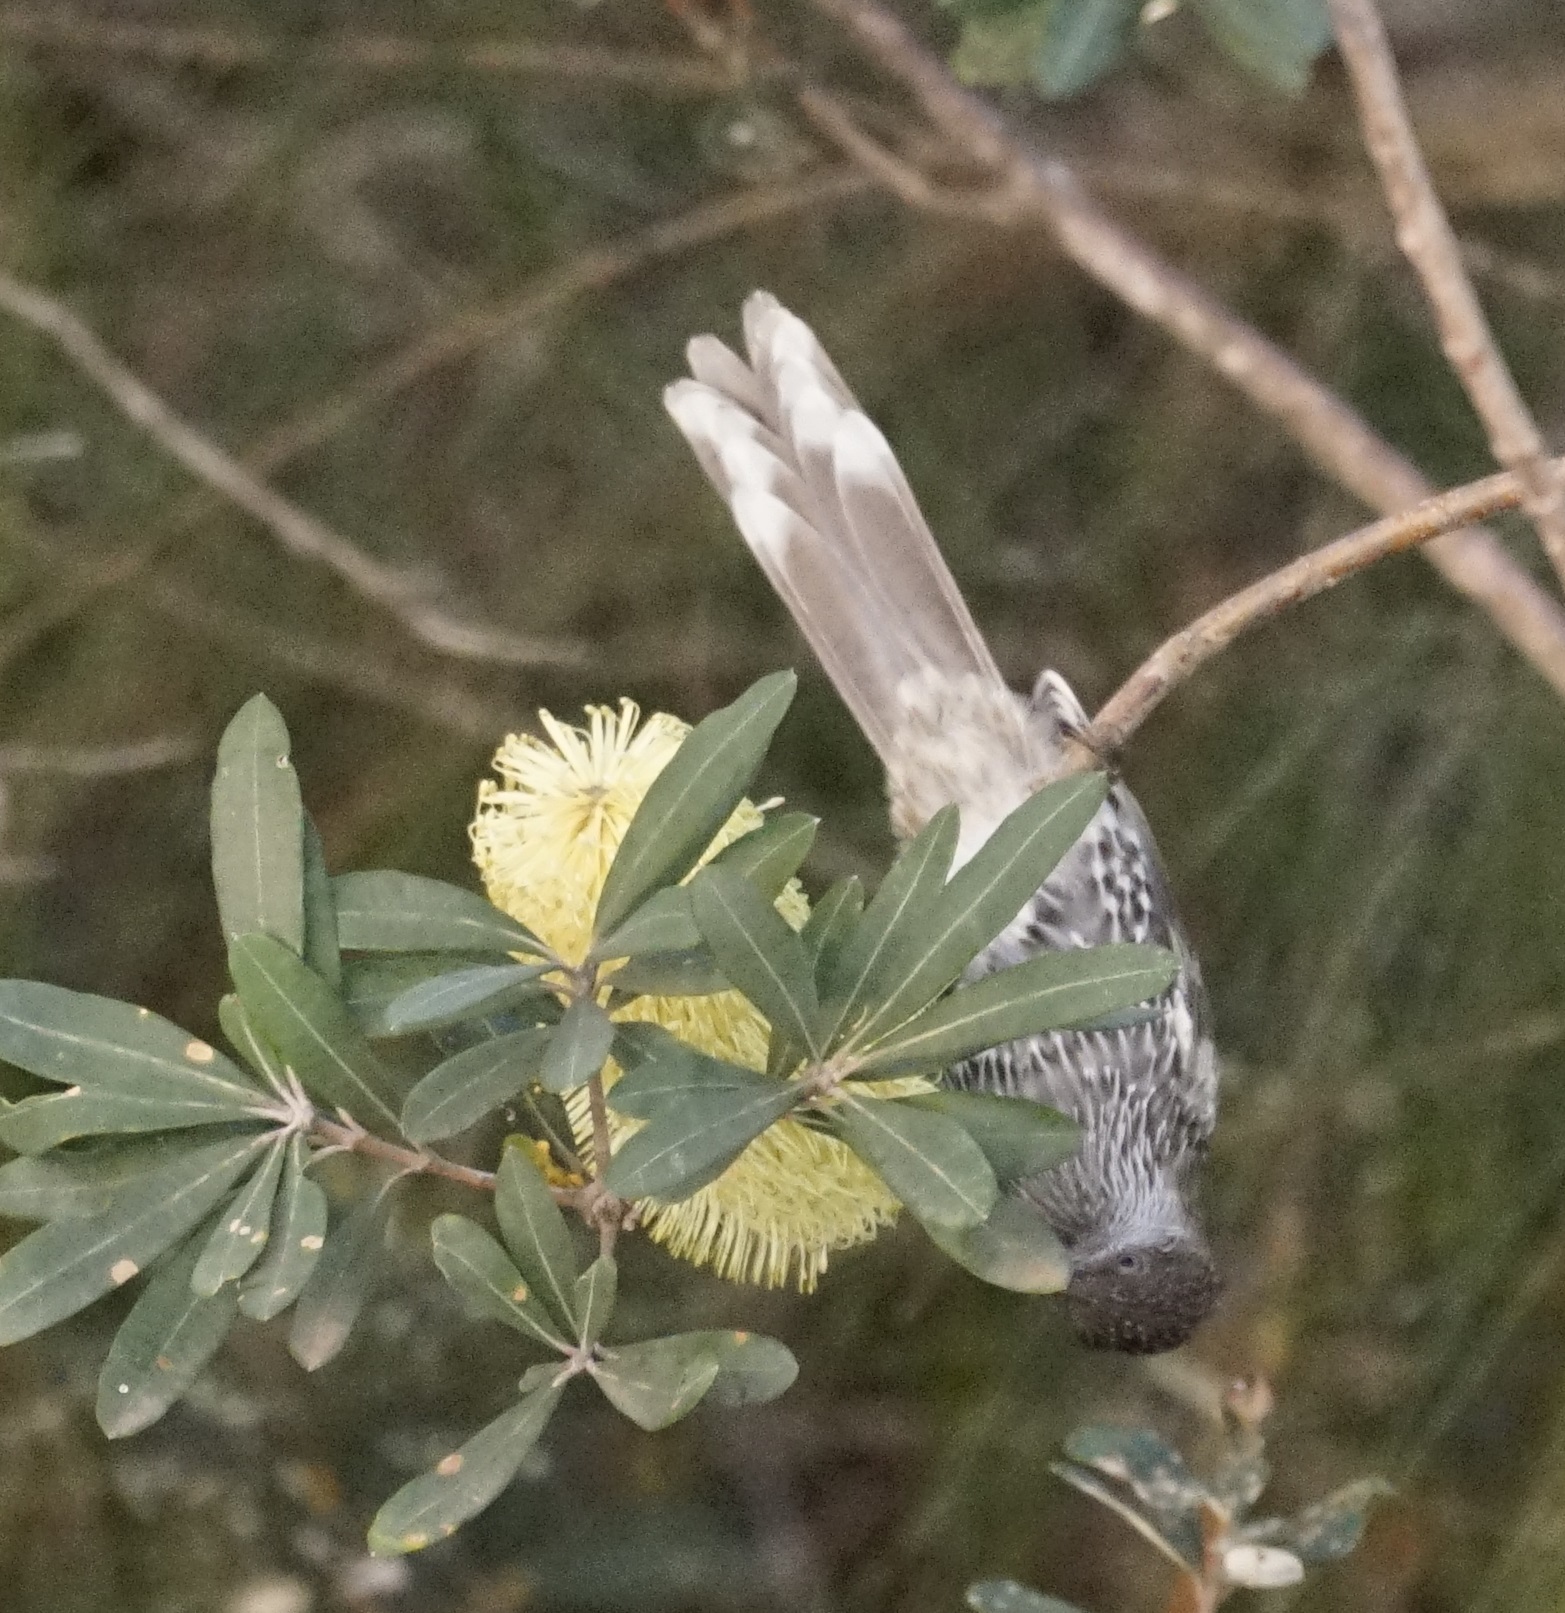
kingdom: Animalia
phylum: Chordata
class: Aves
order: Passeriformes
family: Meliphagidae
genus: Anthochaera
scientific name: Anthochaera chrysoptera
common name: Little wattlebird
